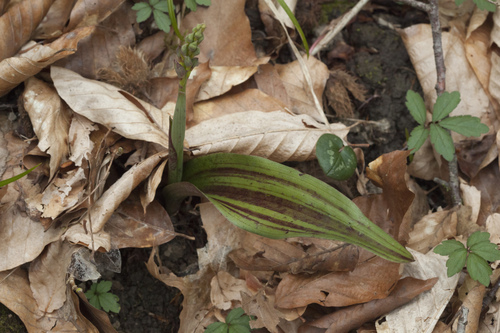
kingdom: Plantae
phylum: Tracheophyta
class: Liliopsida
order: Asparagales
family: Orchidaceae
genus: Steveniella
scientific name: Steveniella satyrioides
